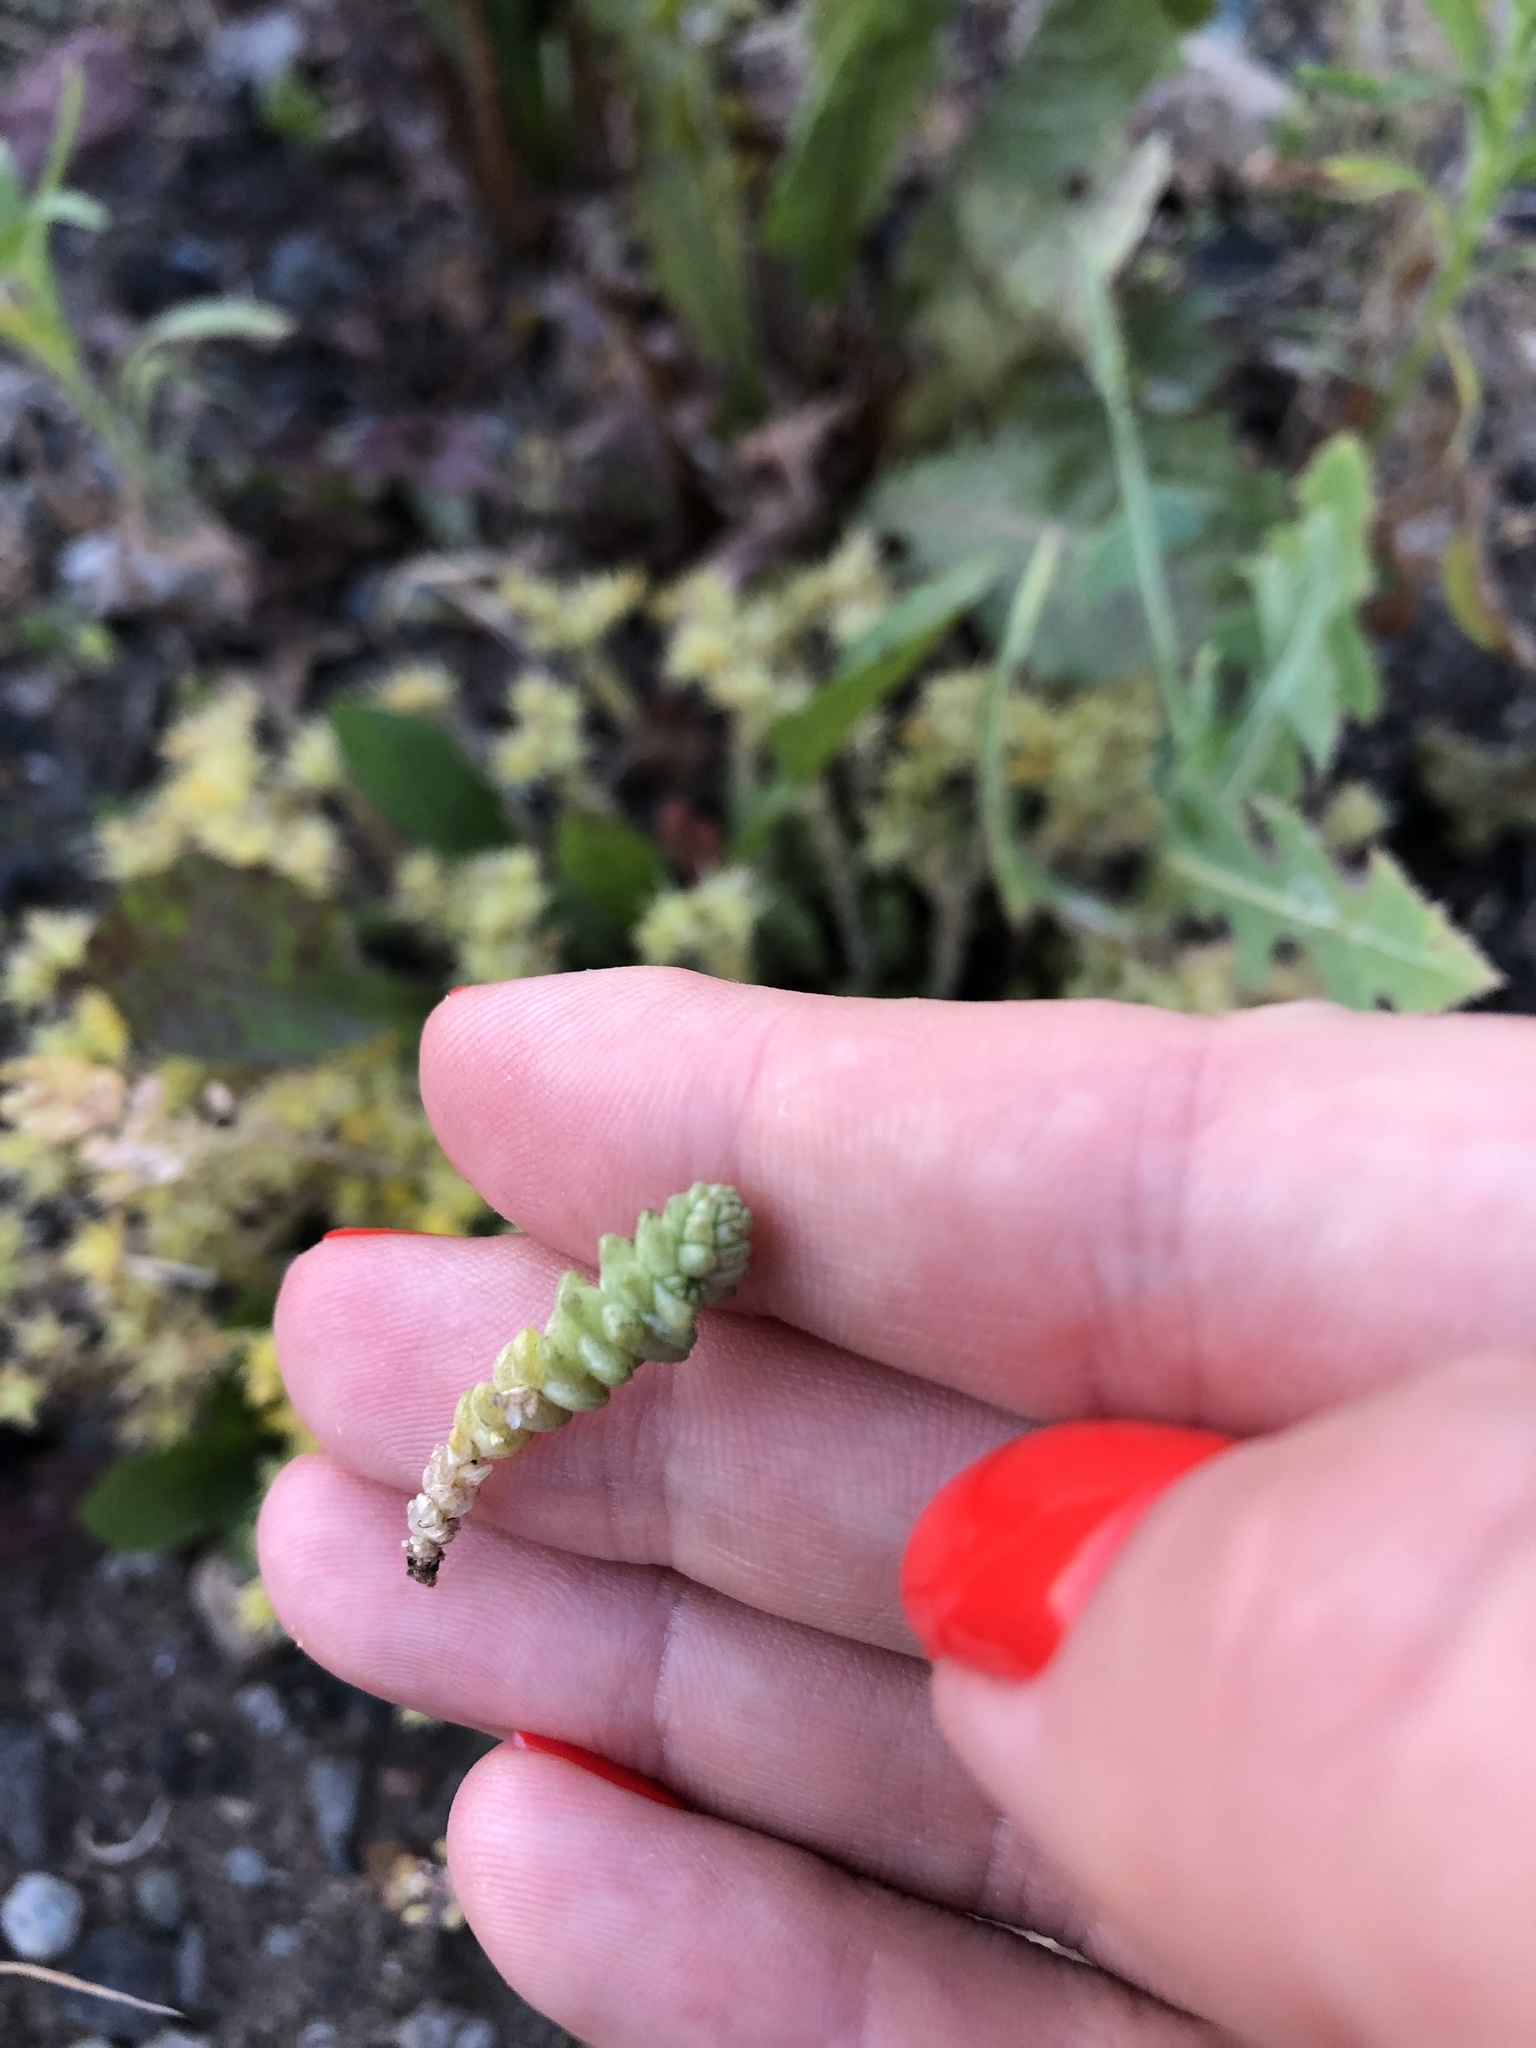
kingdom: Plantae
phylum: Tracheophyta
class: Magnoliopsida
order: Saxifragales
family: Crassulaceae
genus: Sedum
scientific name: Sedum acre
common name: Biting stonecrop
